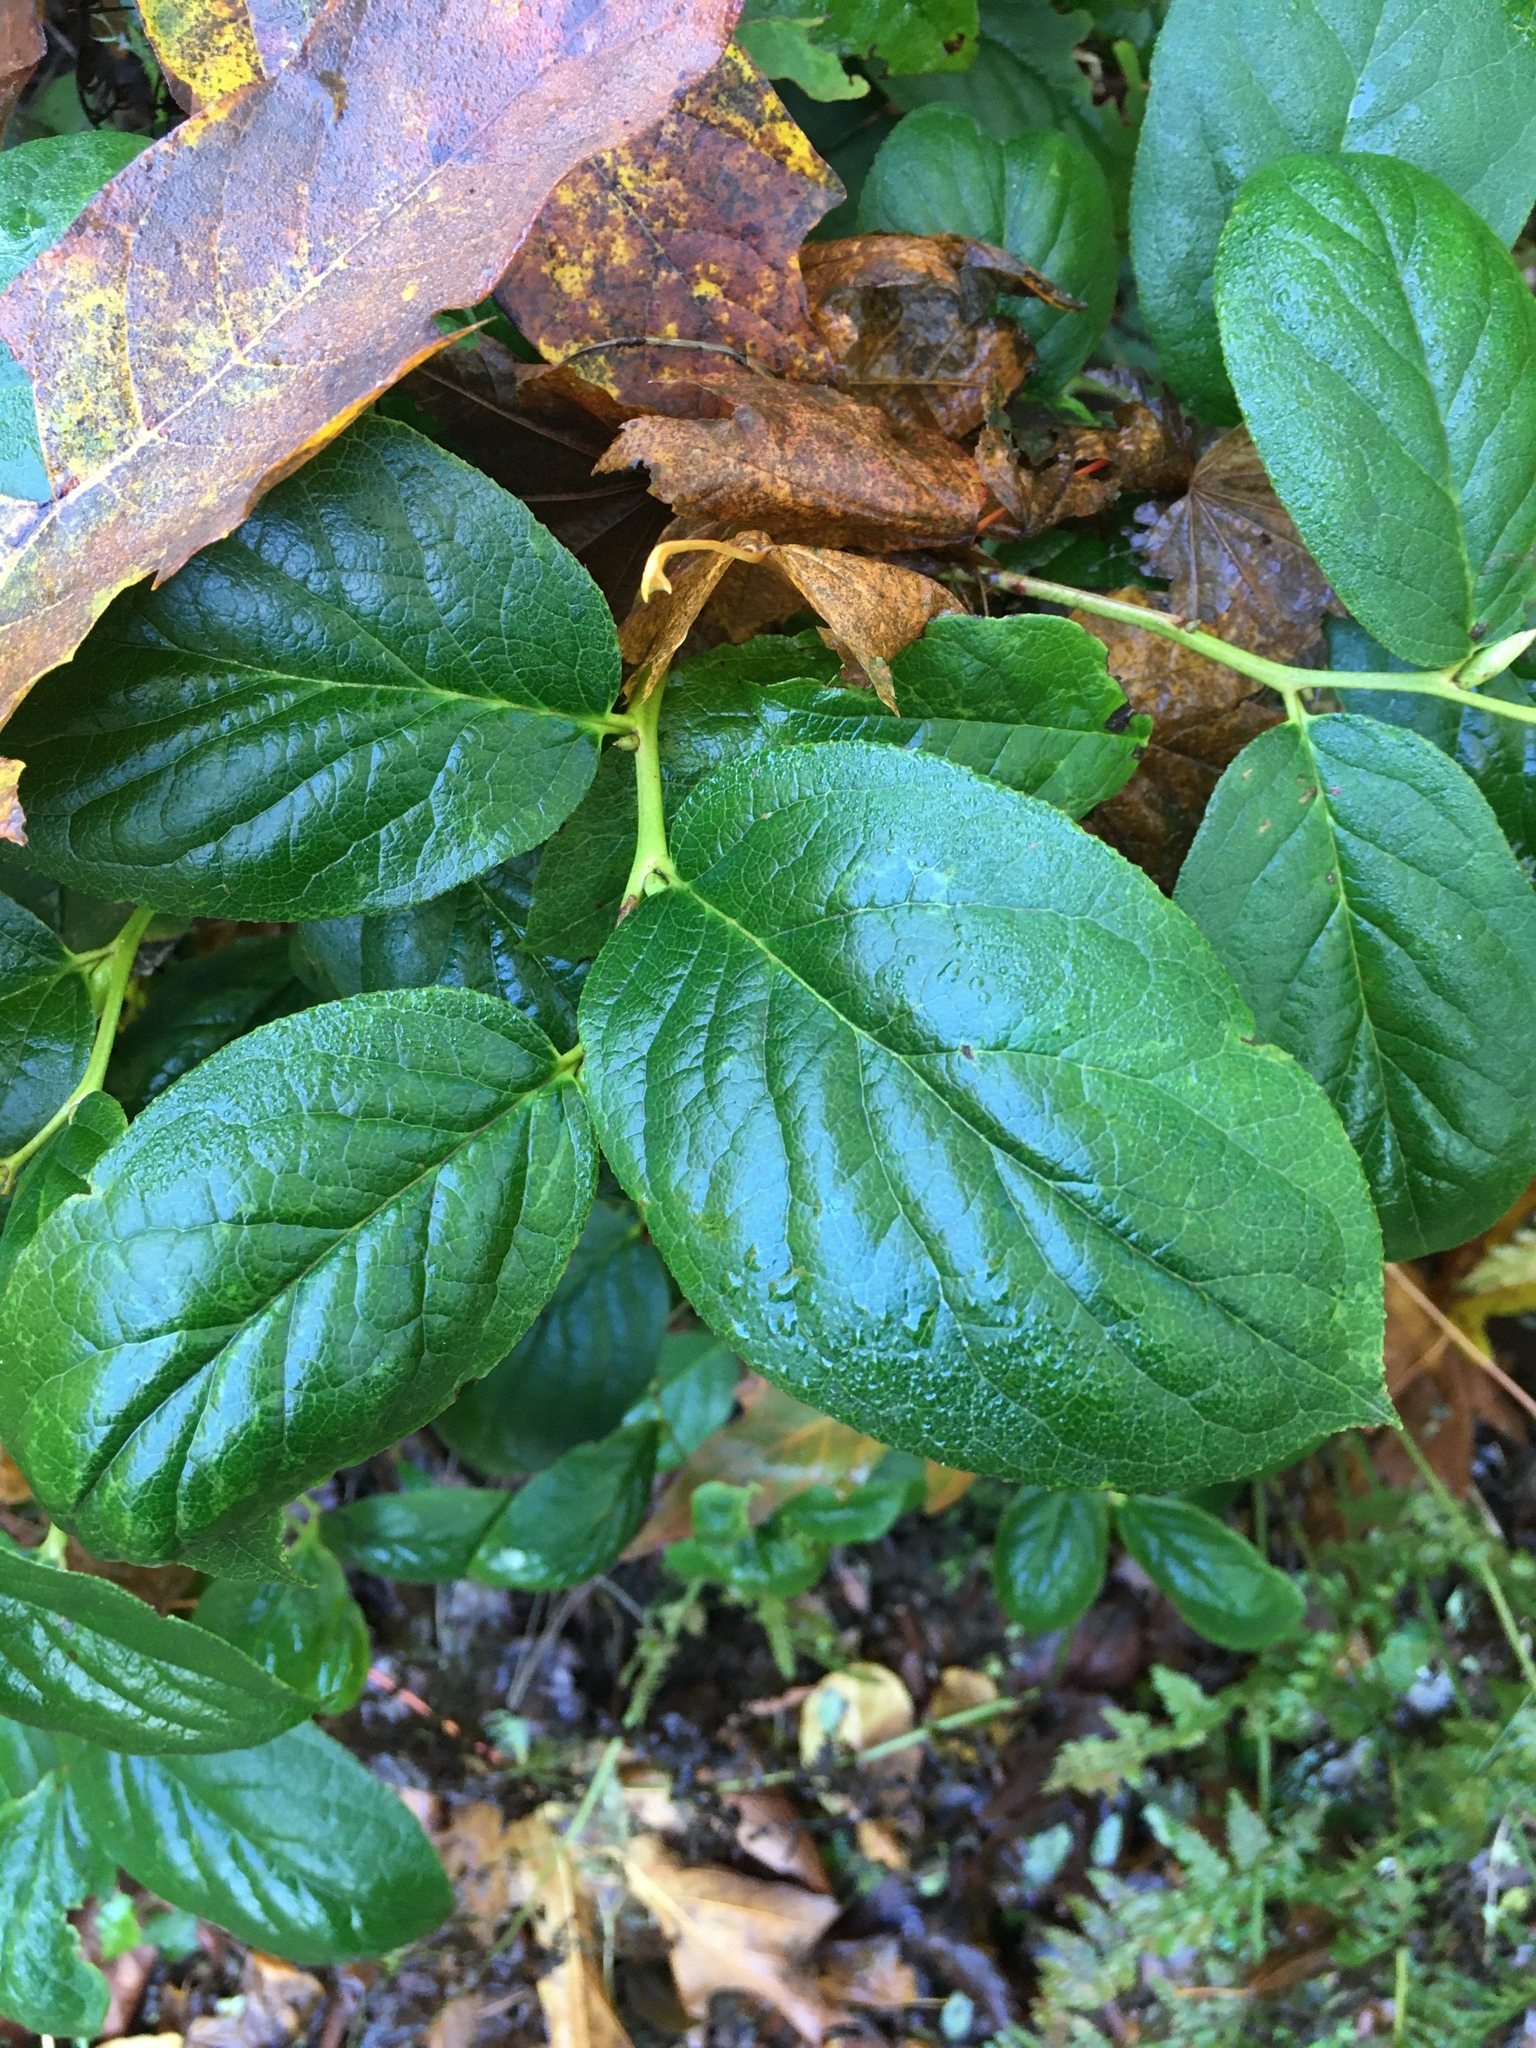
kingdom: Plantae
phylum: Tracheophyta
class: Magnoliopsida
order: Ericales
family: Ericaceae
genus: Gaultheria
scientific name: Gaultheria shallon
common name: Shallon
